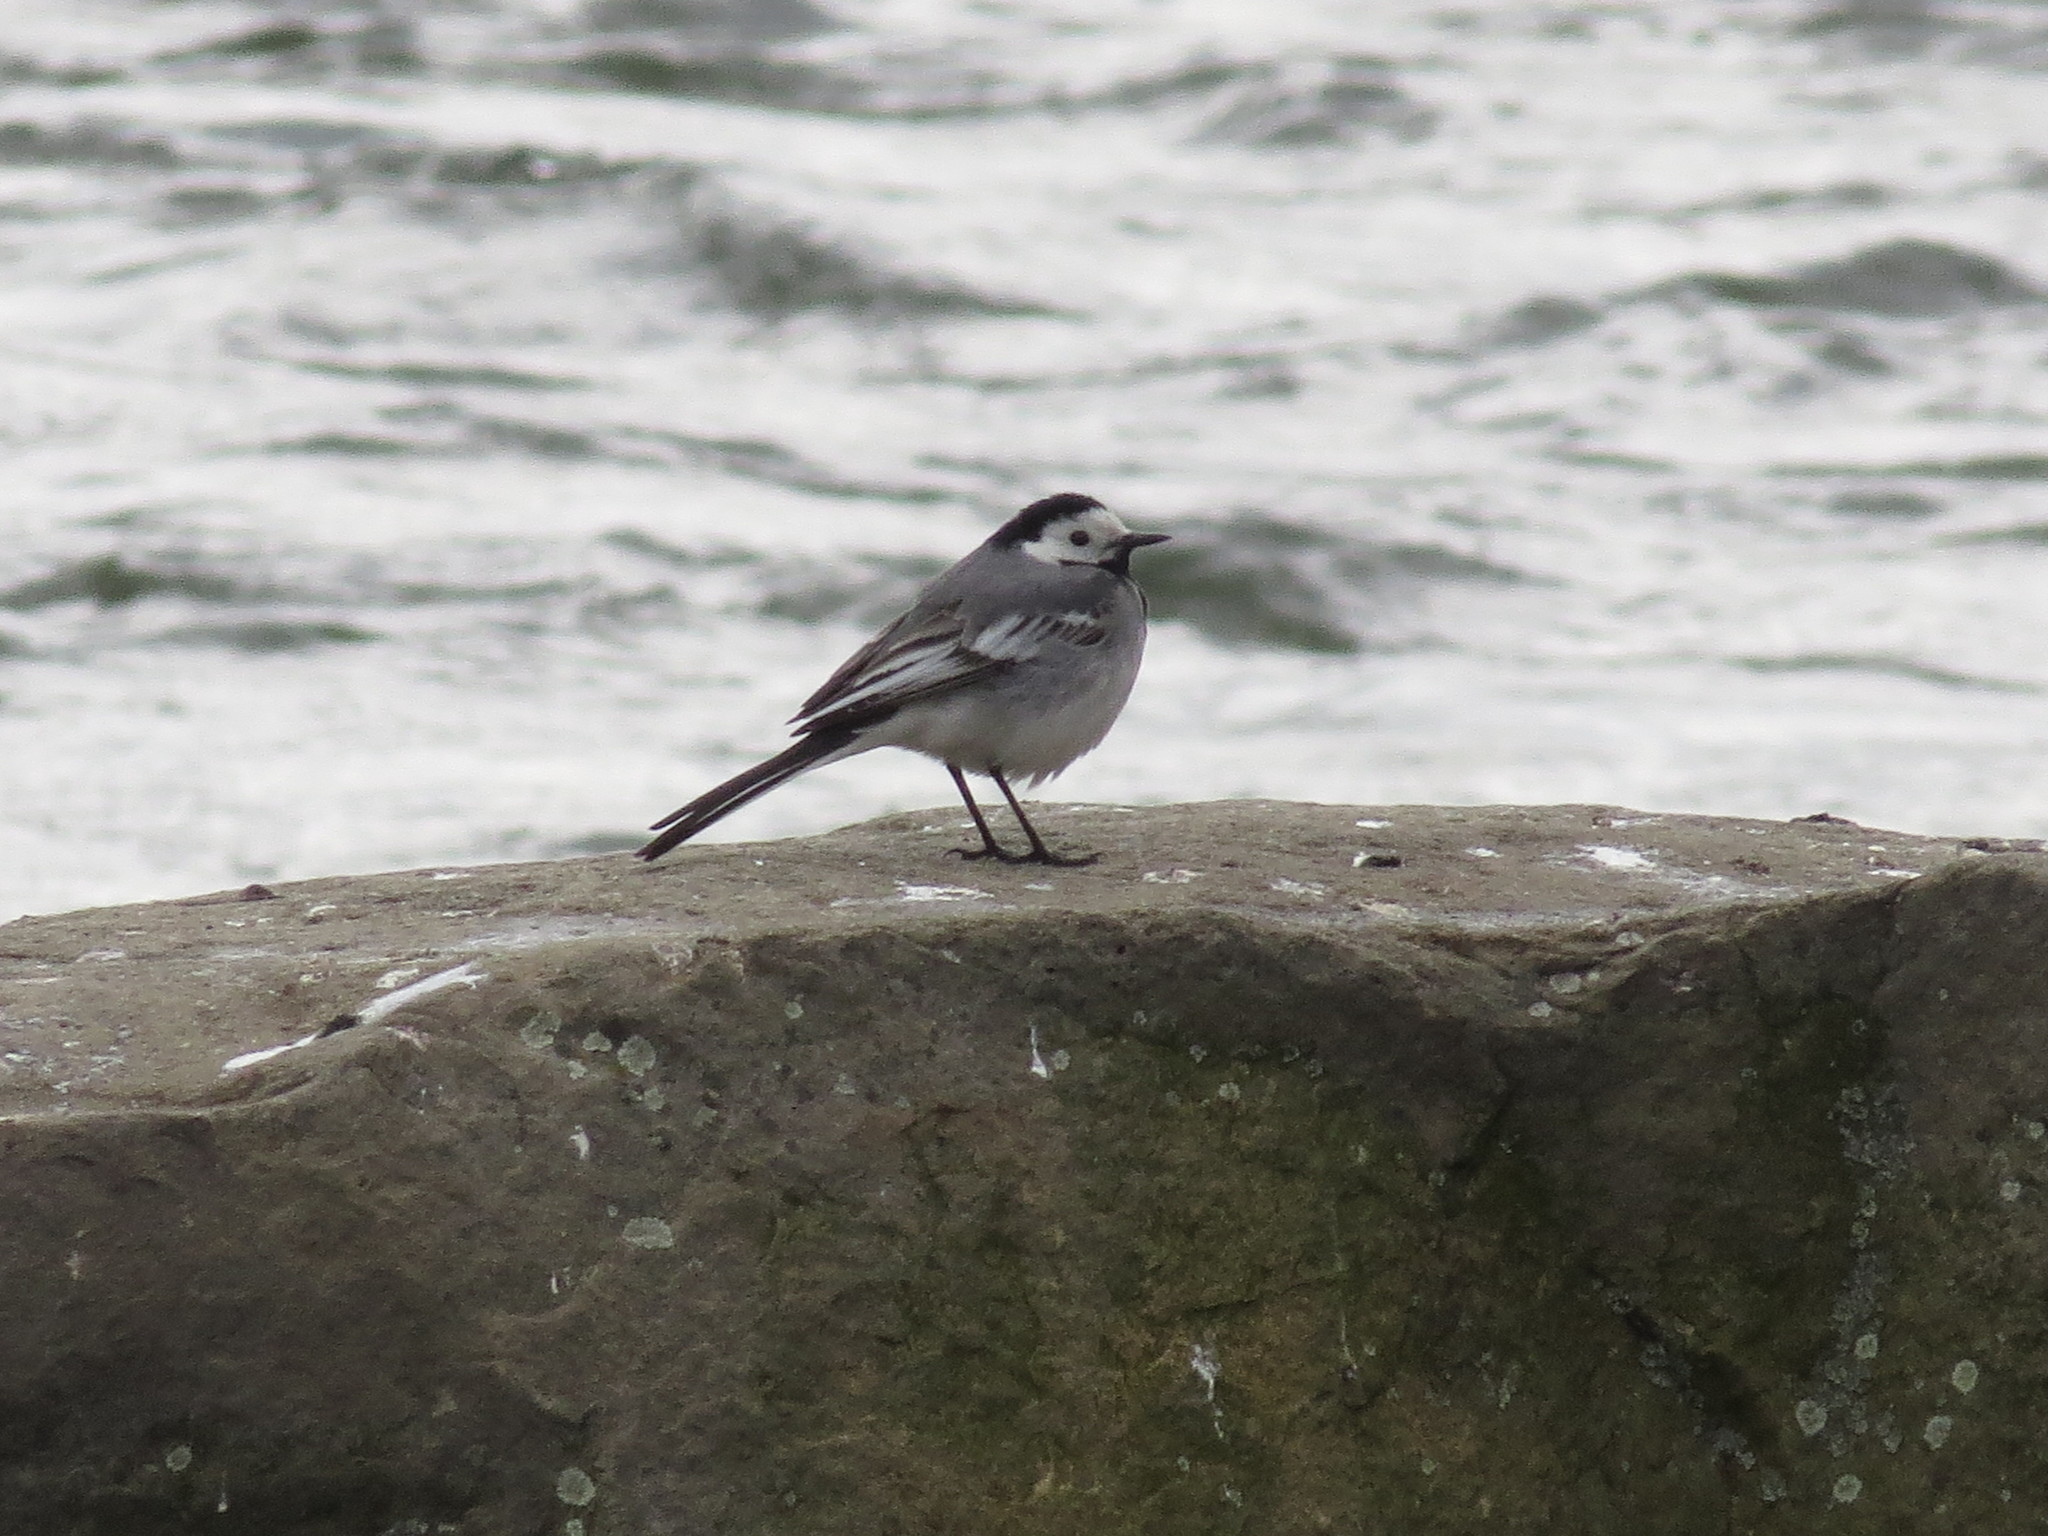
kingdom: Animalia
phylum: Chordata
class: Aves
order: Passeriformes
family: Motacillidae
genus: Motacilla
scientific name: Motacilla alba
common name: White wagtail
